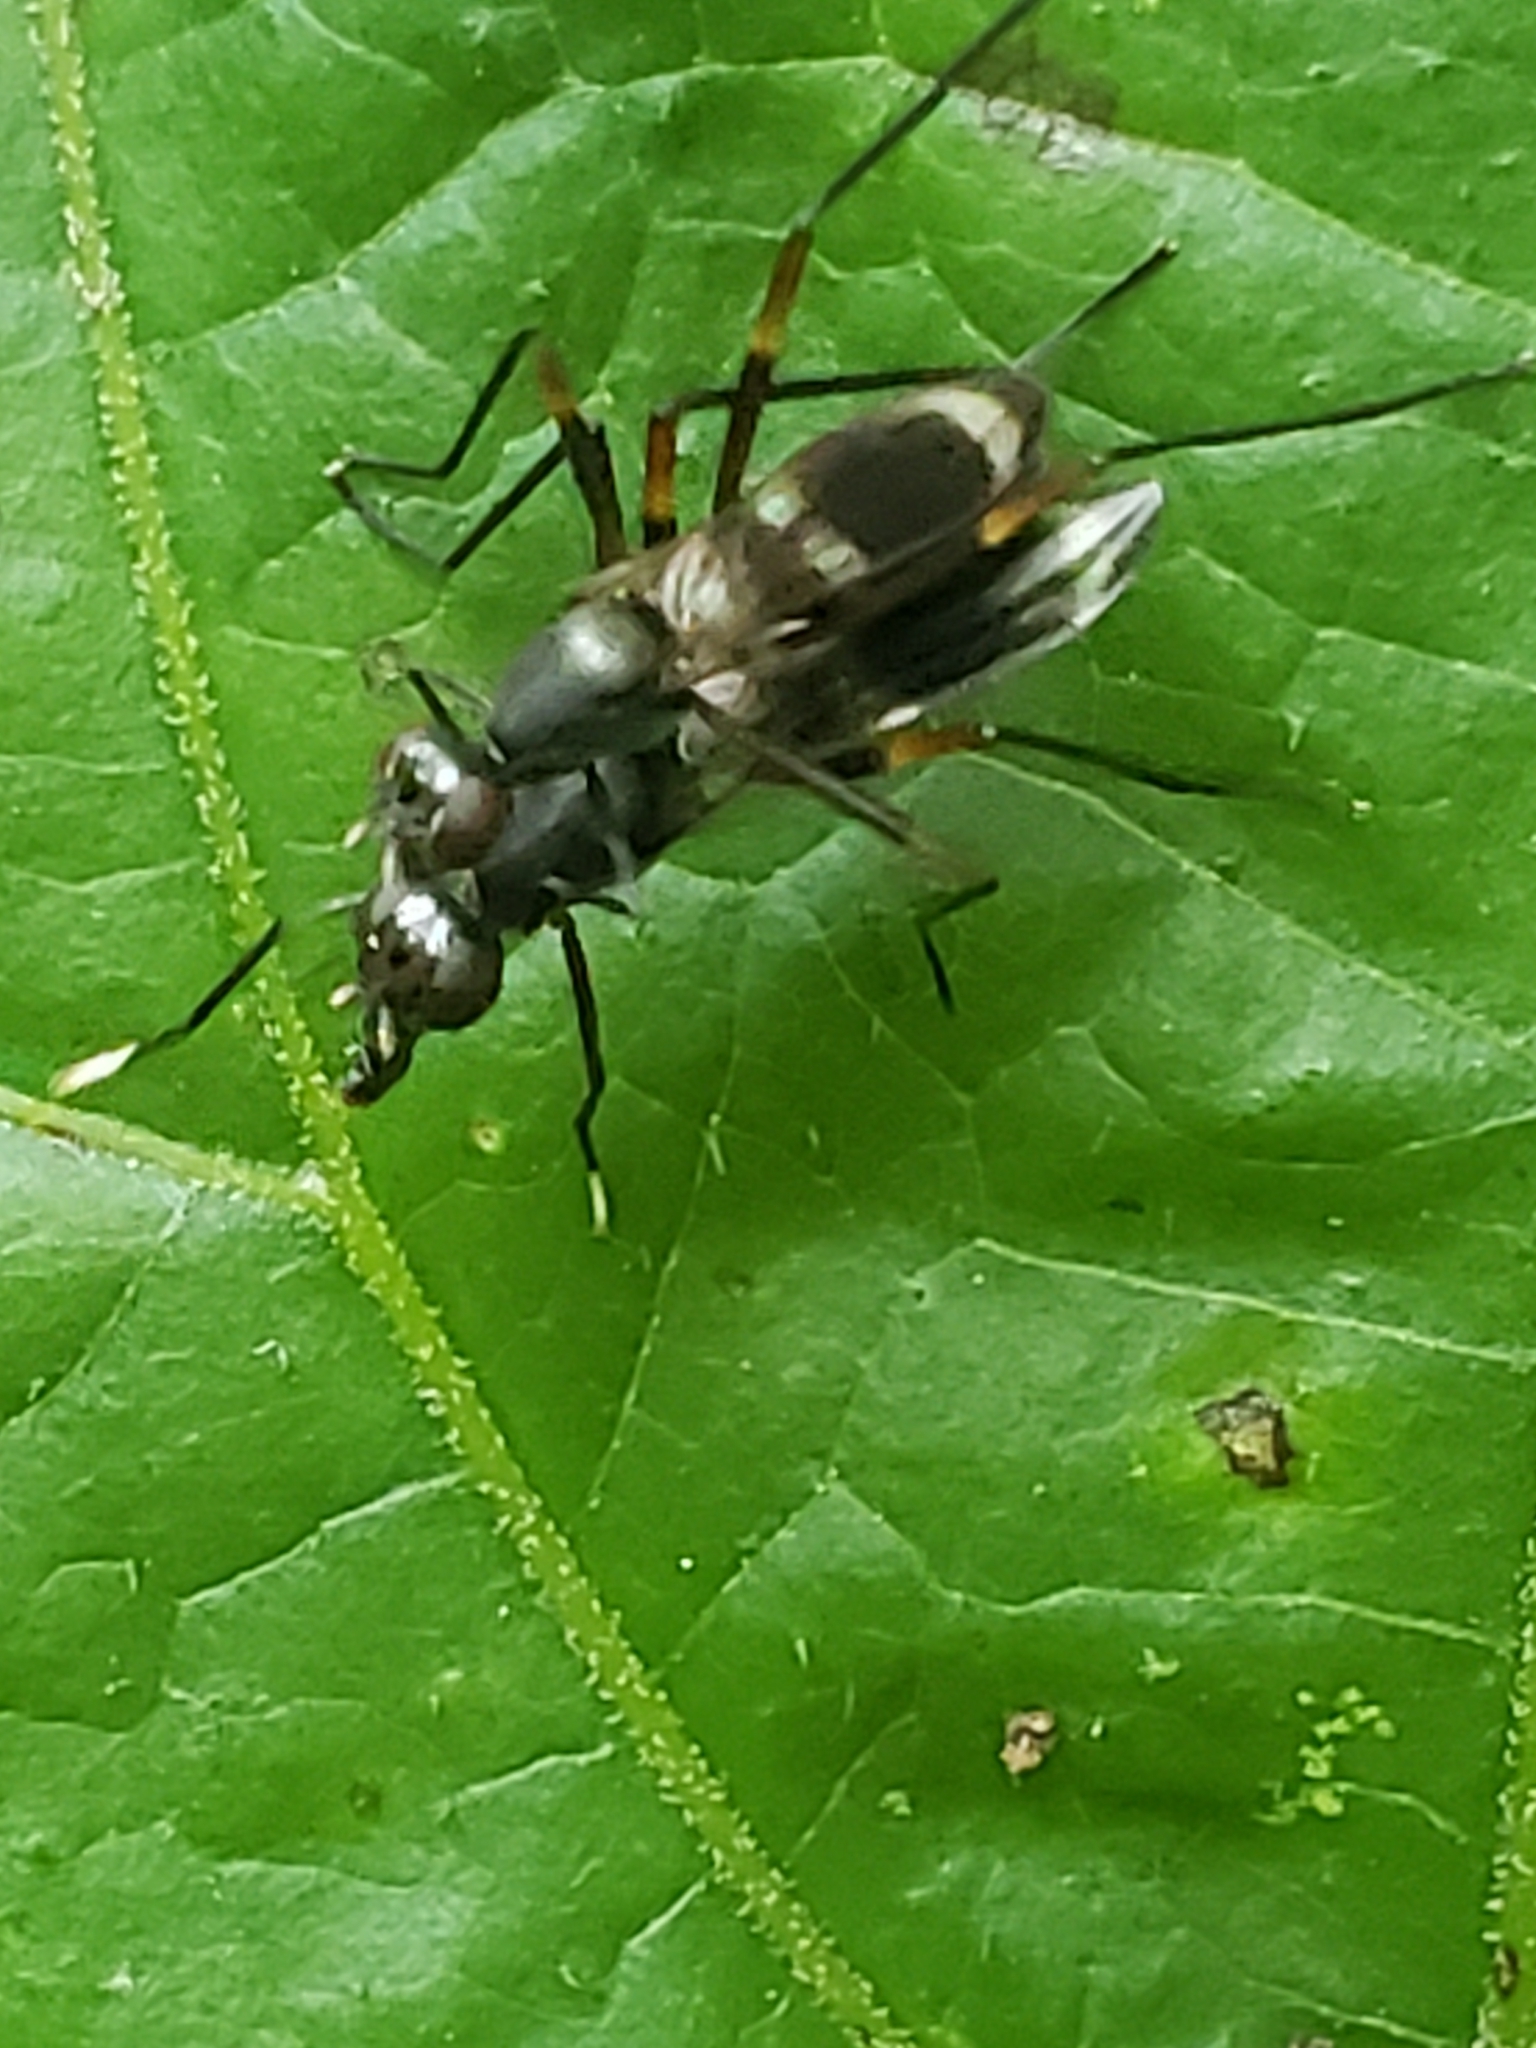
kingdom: Animalia
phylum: Arthropoda
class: Insecta
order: Diptera
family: Micropezidae
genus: Taeniaptera
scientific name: Taeniaptera trivittata
